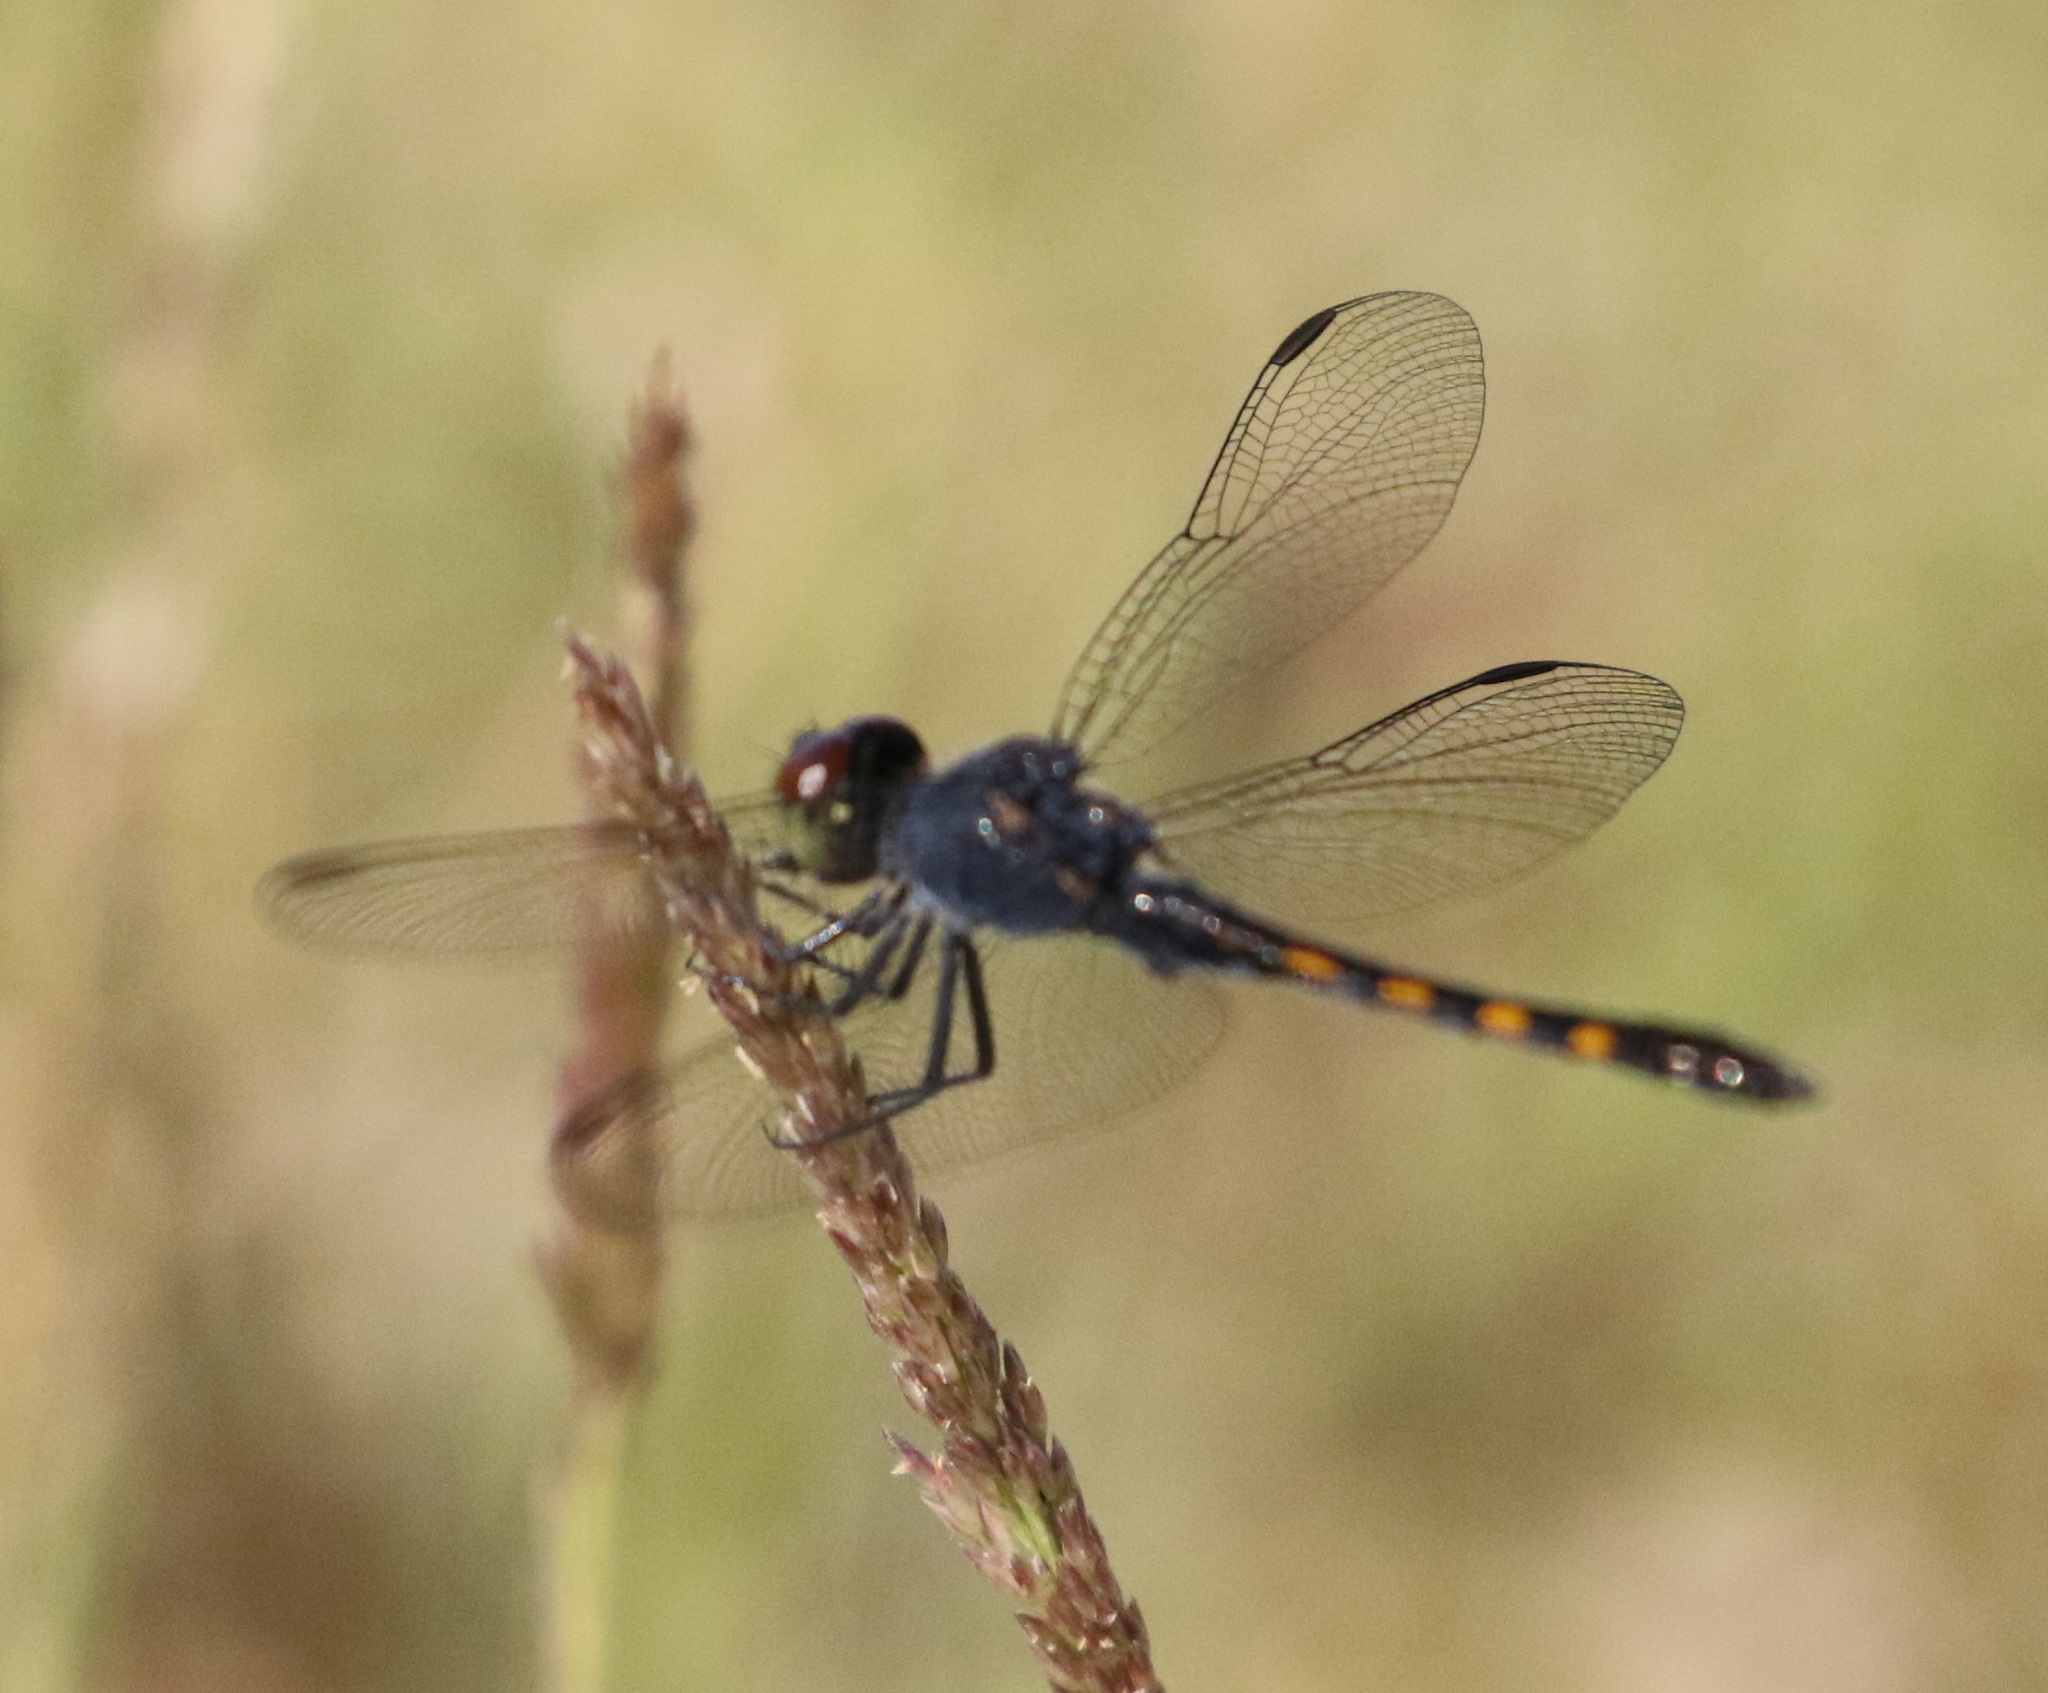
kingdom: Animalia
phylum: Arthropoda
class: Insecta
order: Odonata
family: Libellulidae
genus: Erythrodiplax
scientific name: Erythrodiplax berenice
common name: Seaside dragonlet
